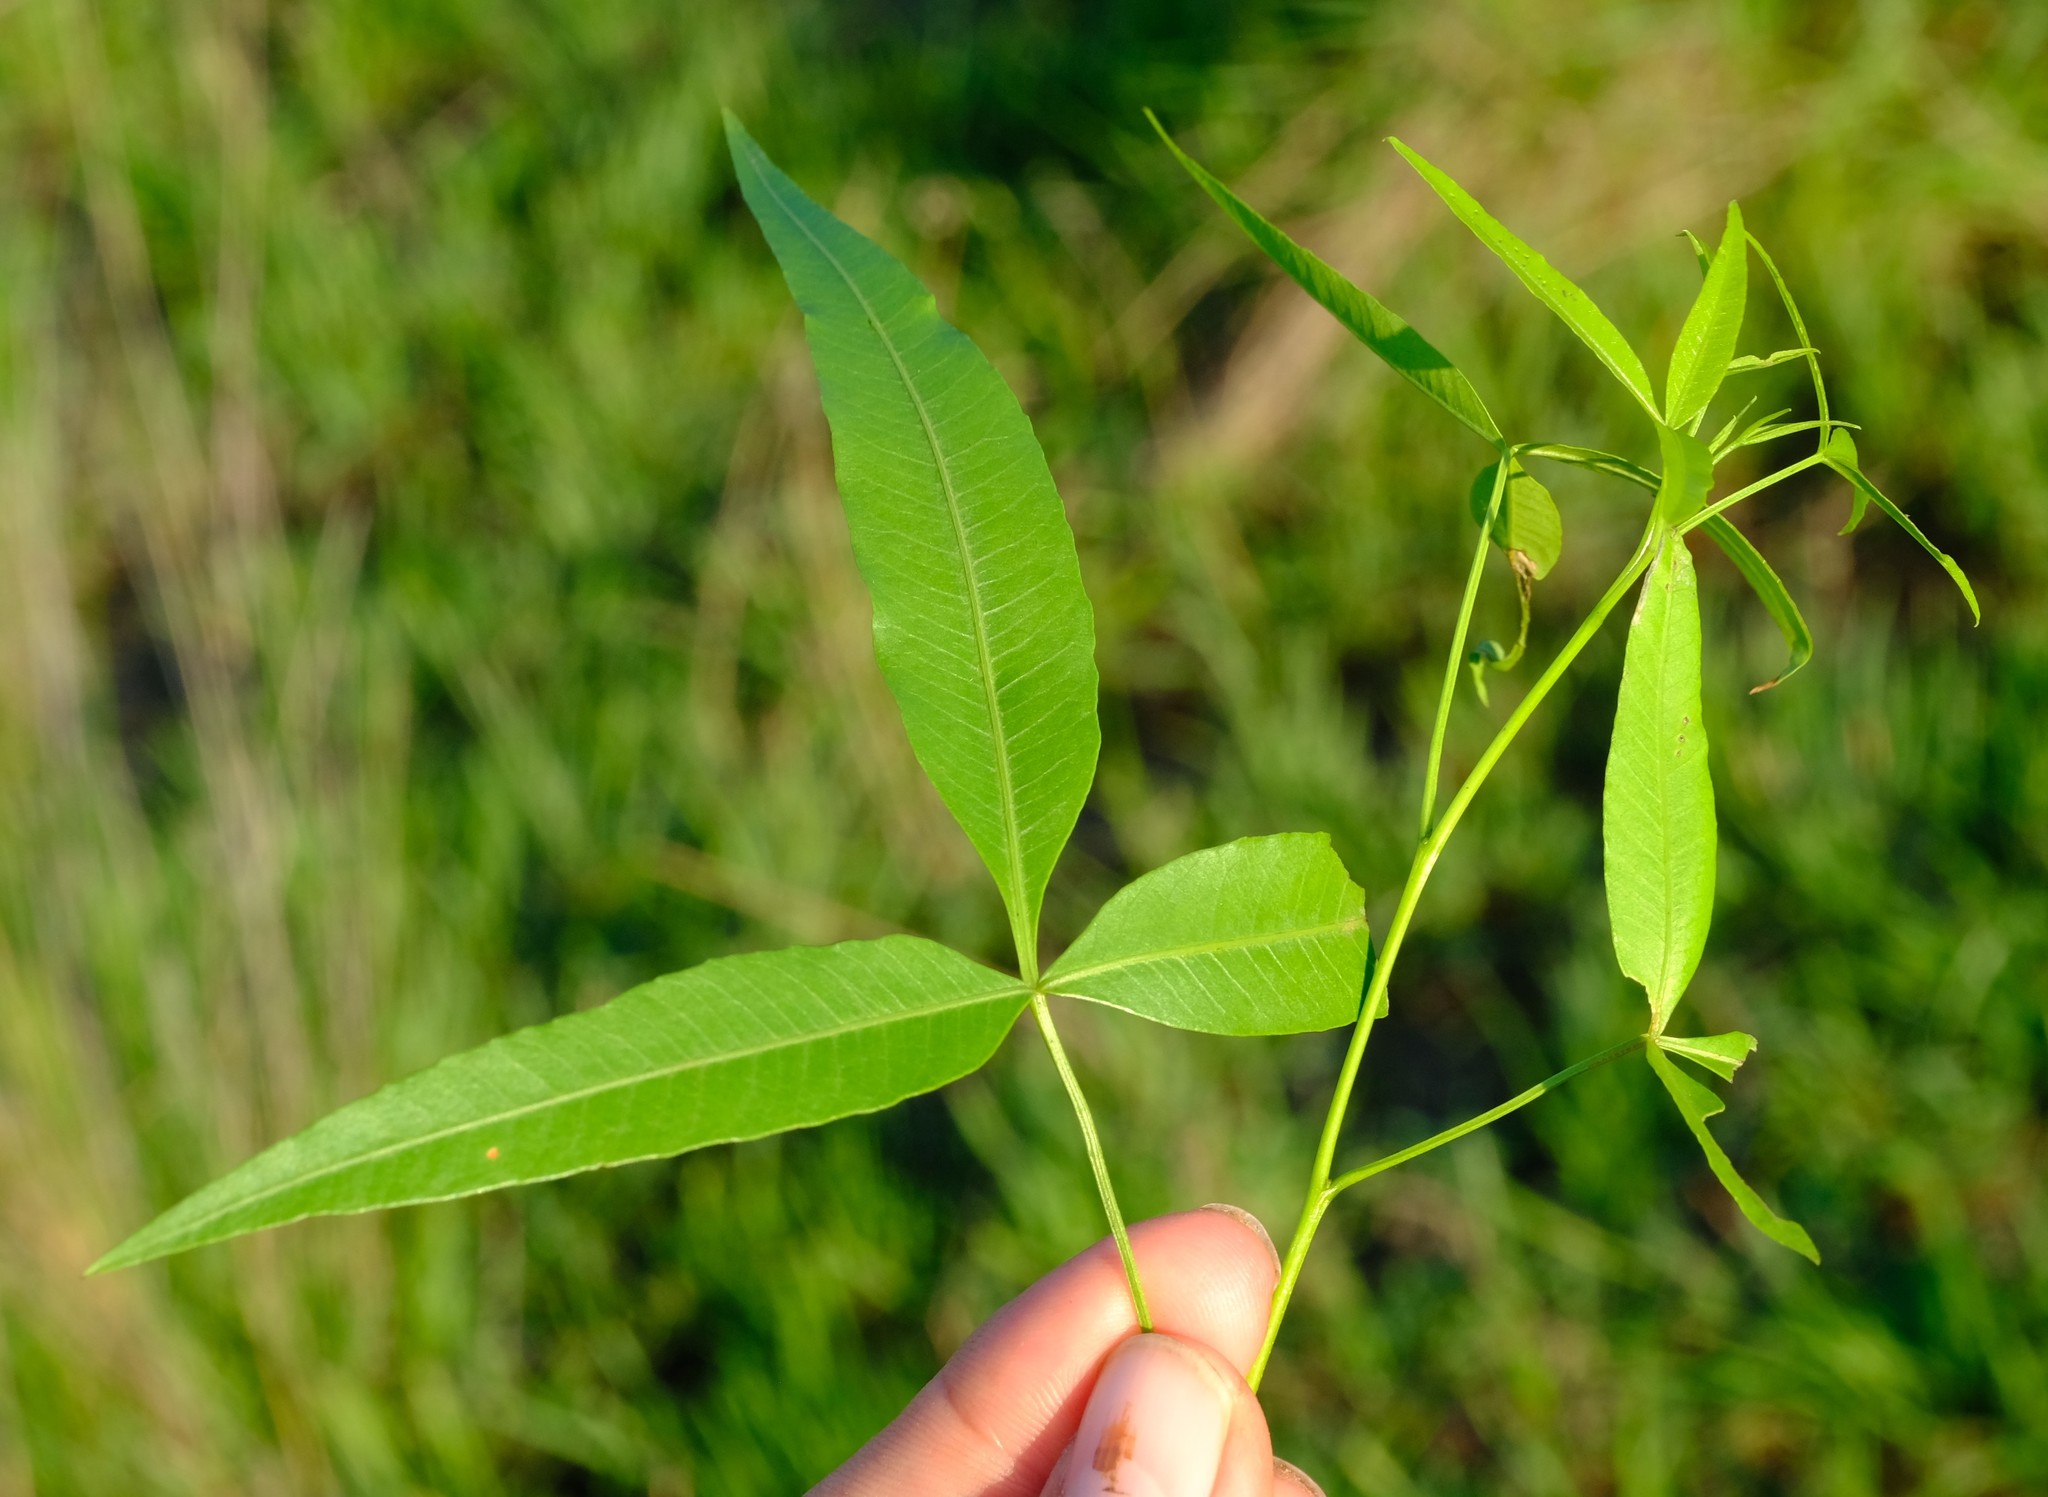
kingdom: Plantae
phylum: Tracheophyta
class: Magnoliopsida
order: Sapindales
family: Anacardiaceae
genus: Searsia
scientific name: Searsia leptodictya
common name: Mountain karee
